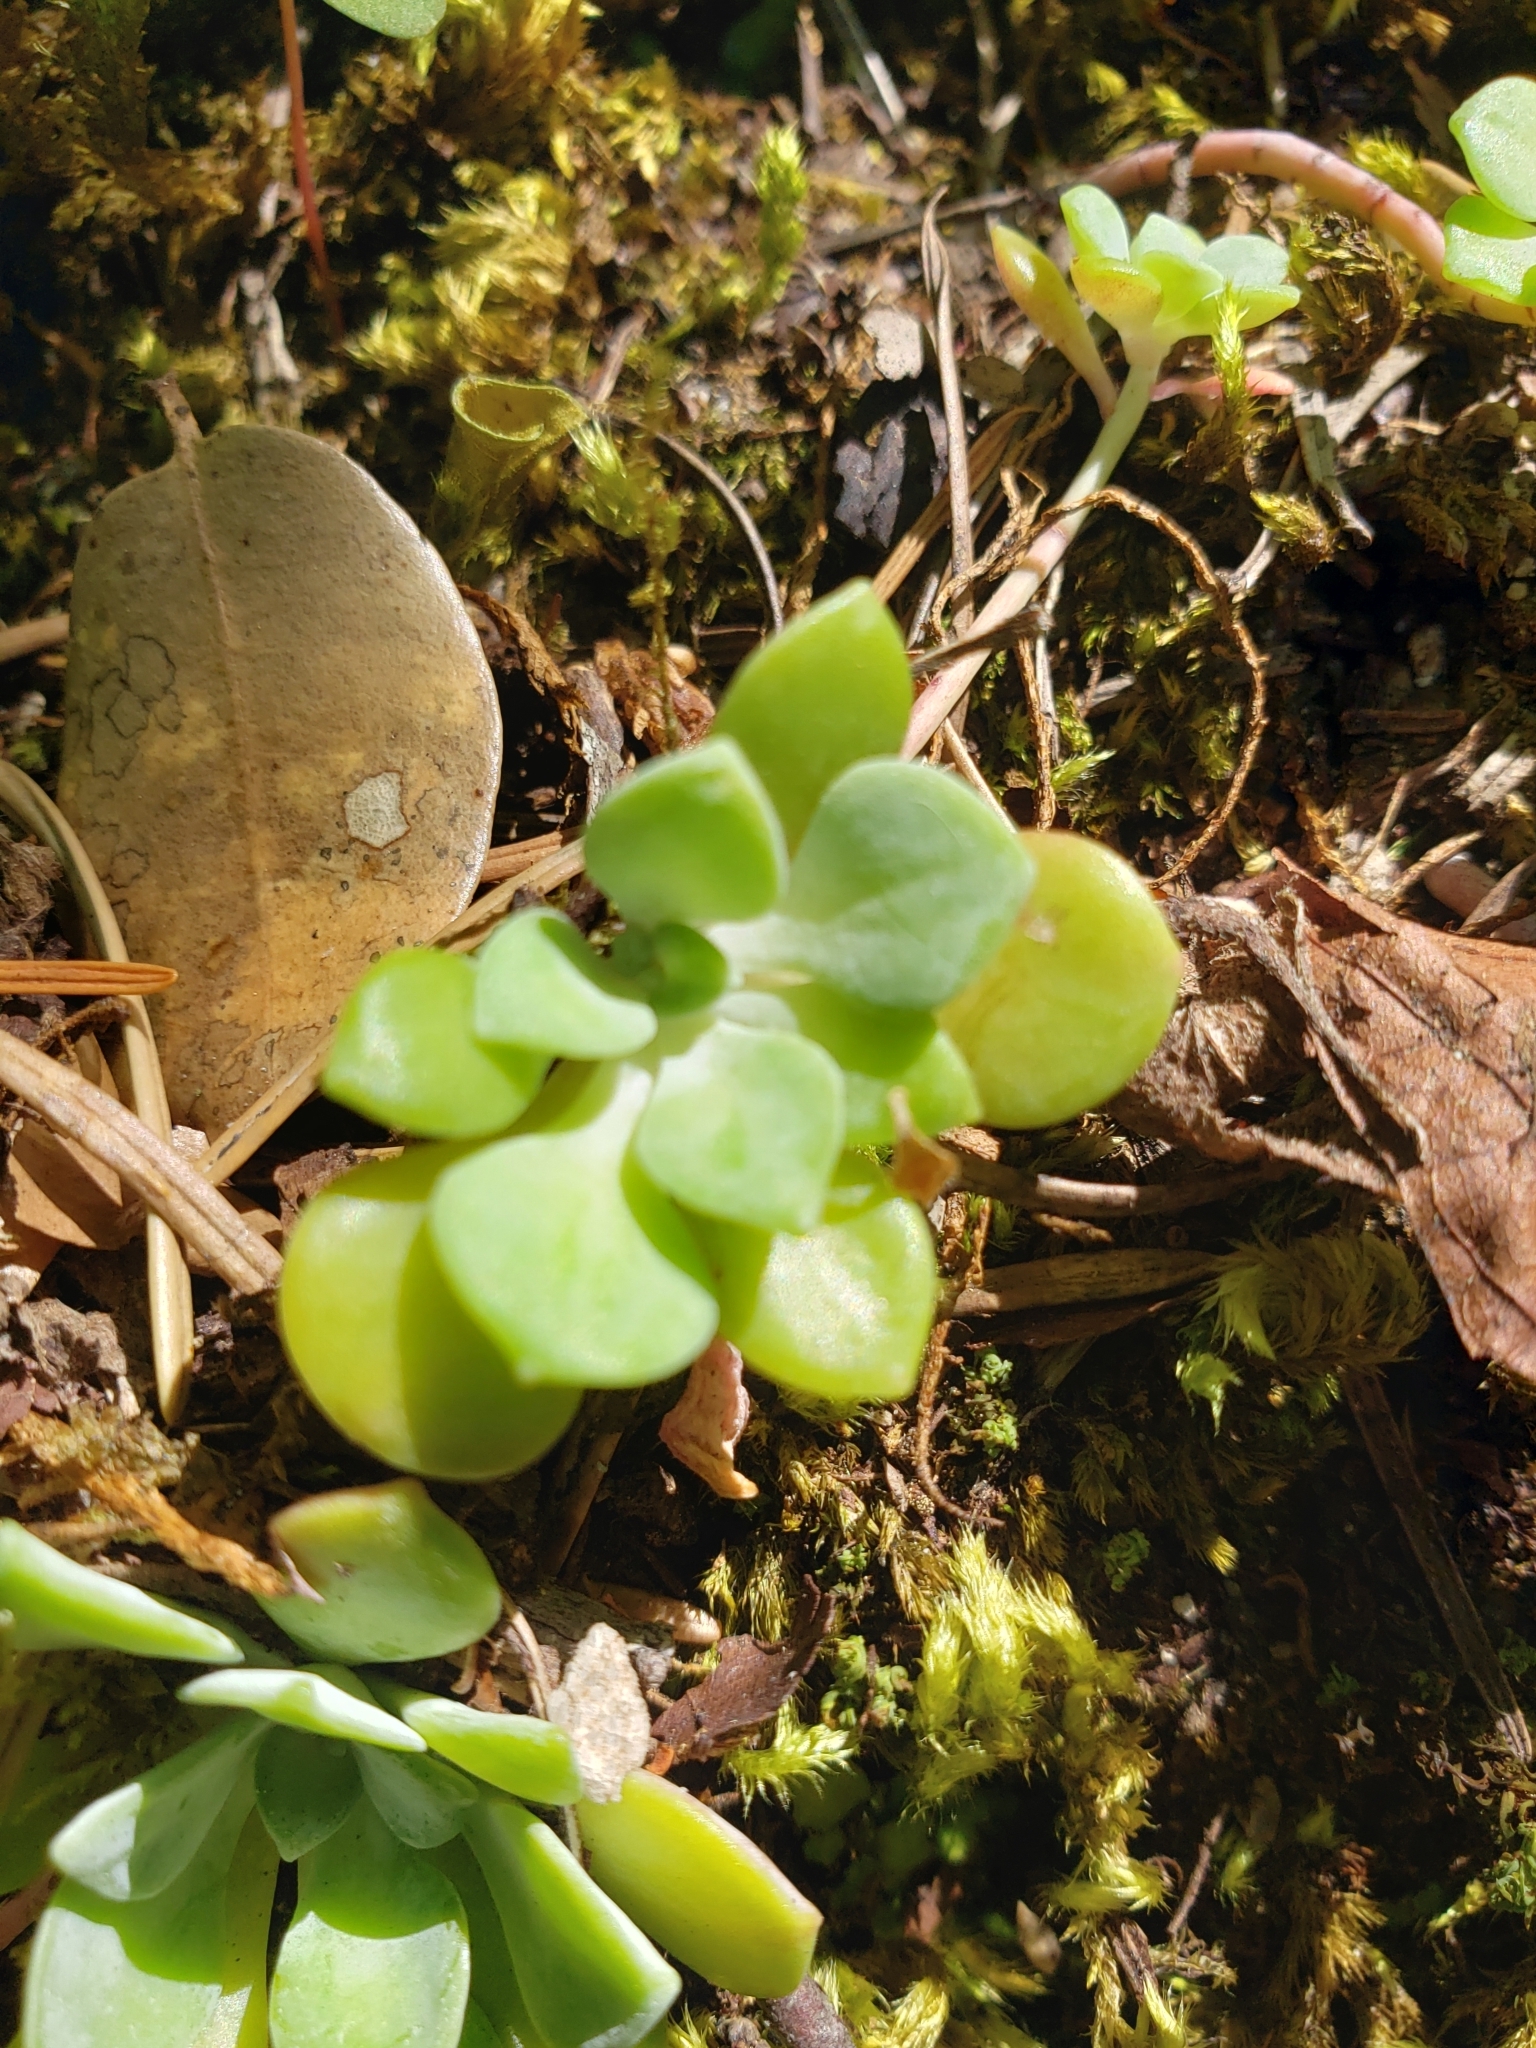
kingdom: Plantae
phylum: Tracheophyta
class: Magnoliopsida
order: Saxifragales
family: Crassulaceae
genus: Sedum
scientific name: Sedum spathulifolium
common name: Colorado stonecrop
